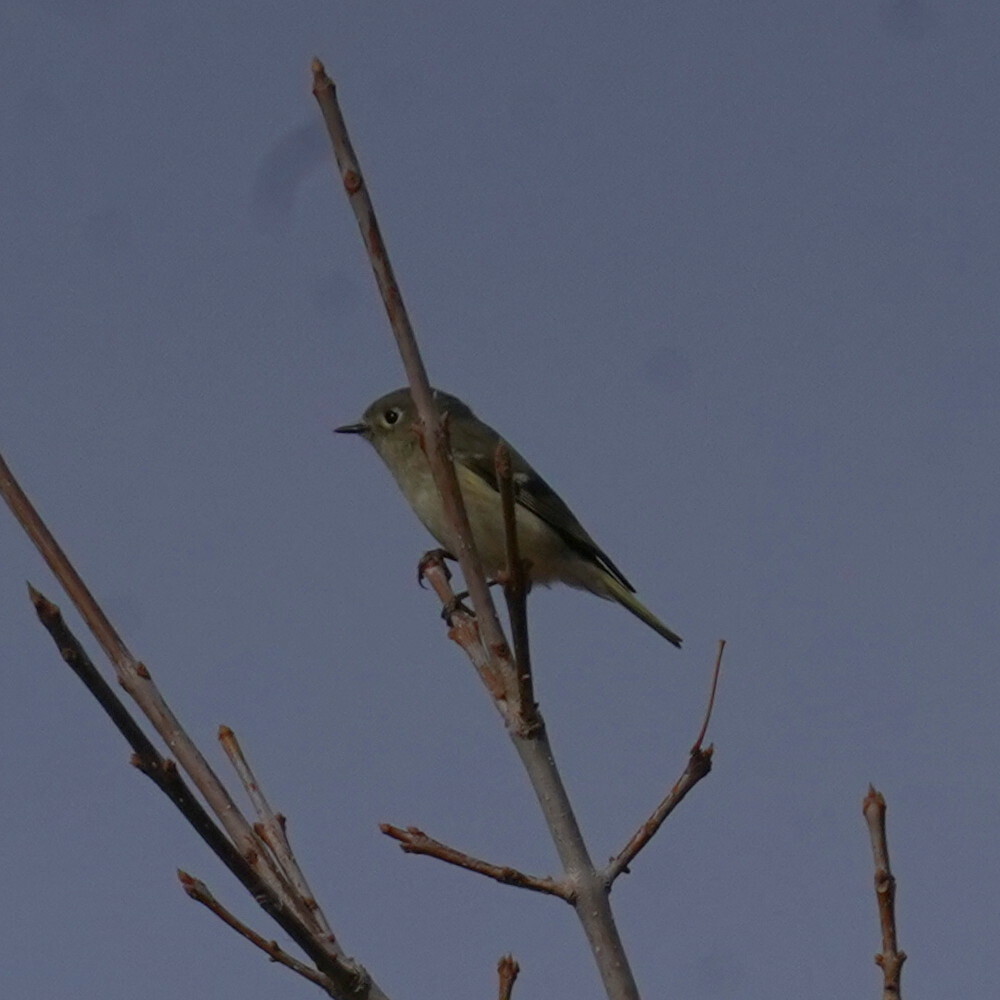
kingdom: Animalia
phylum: Chordata
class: Aves
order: Passeriformes
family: Regulidae
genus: Regulus
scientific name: Regulus calendula
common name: Ruby-crowned kinglet
